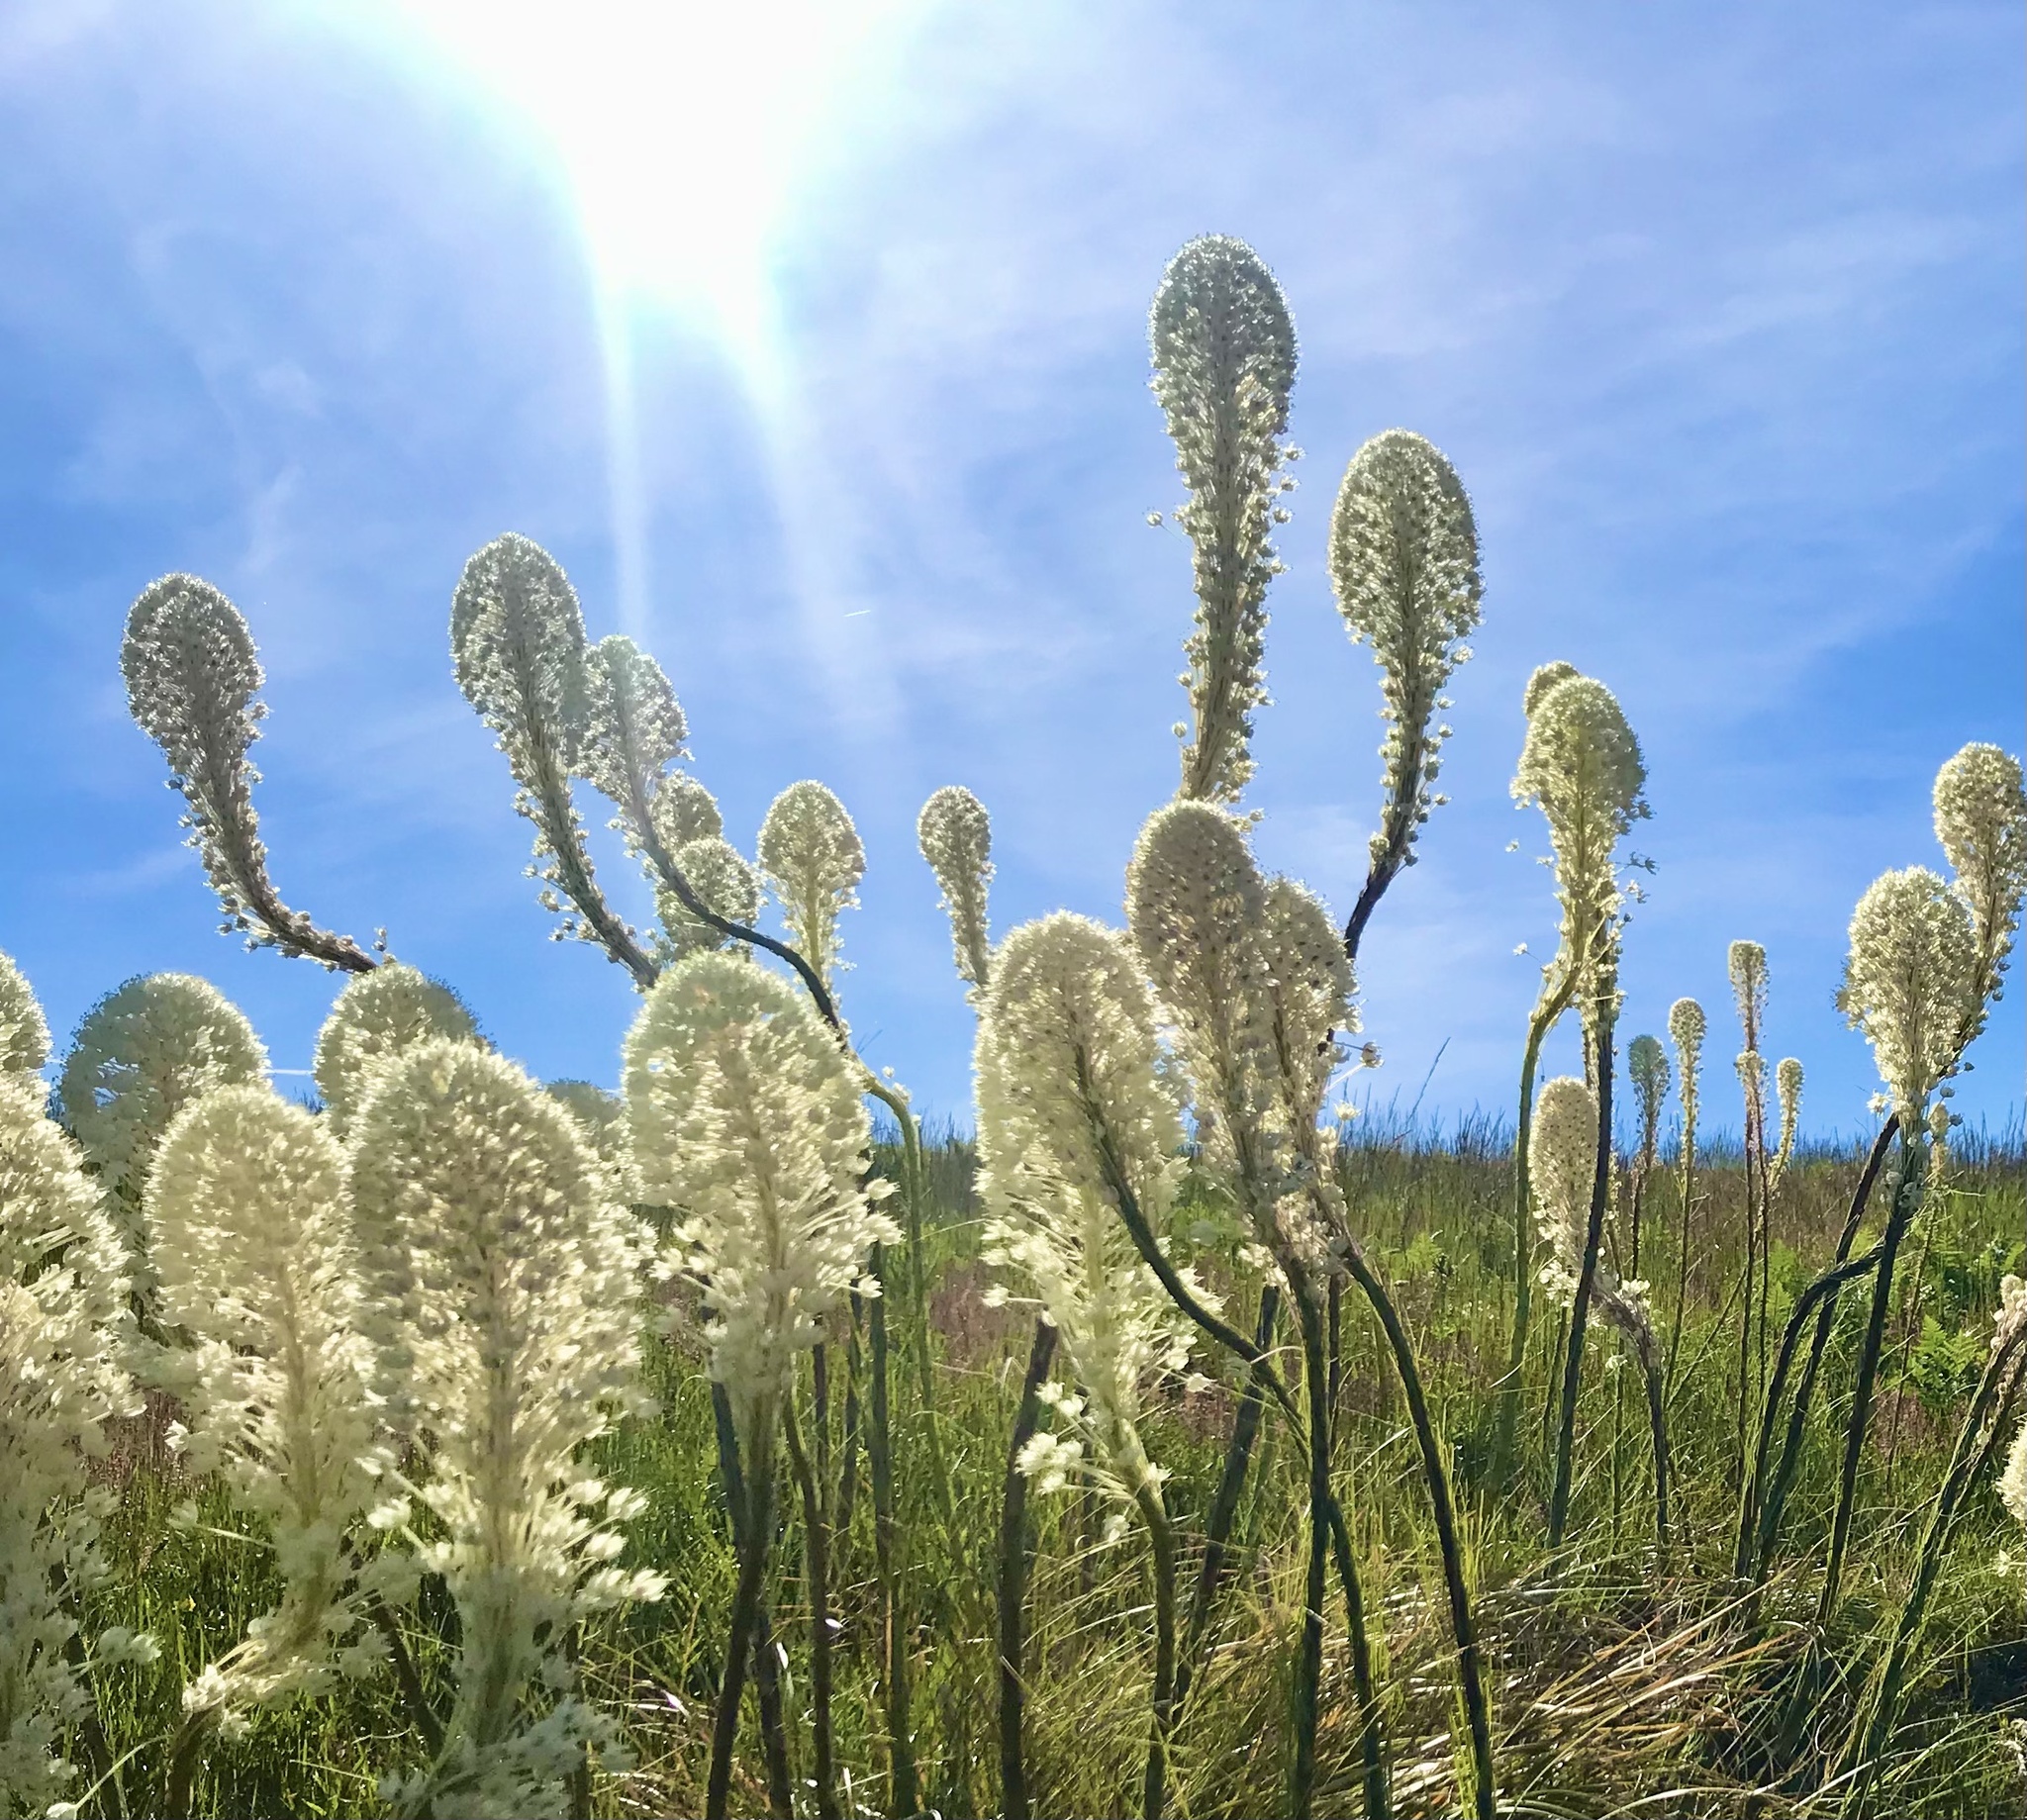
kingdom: Plantae
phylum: Tracheophyta
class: Liliopsida
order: Liliales
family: Melanthiaceae
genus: Xerophyllum
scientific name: Xerophyllum tenax
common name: Bear-grass
